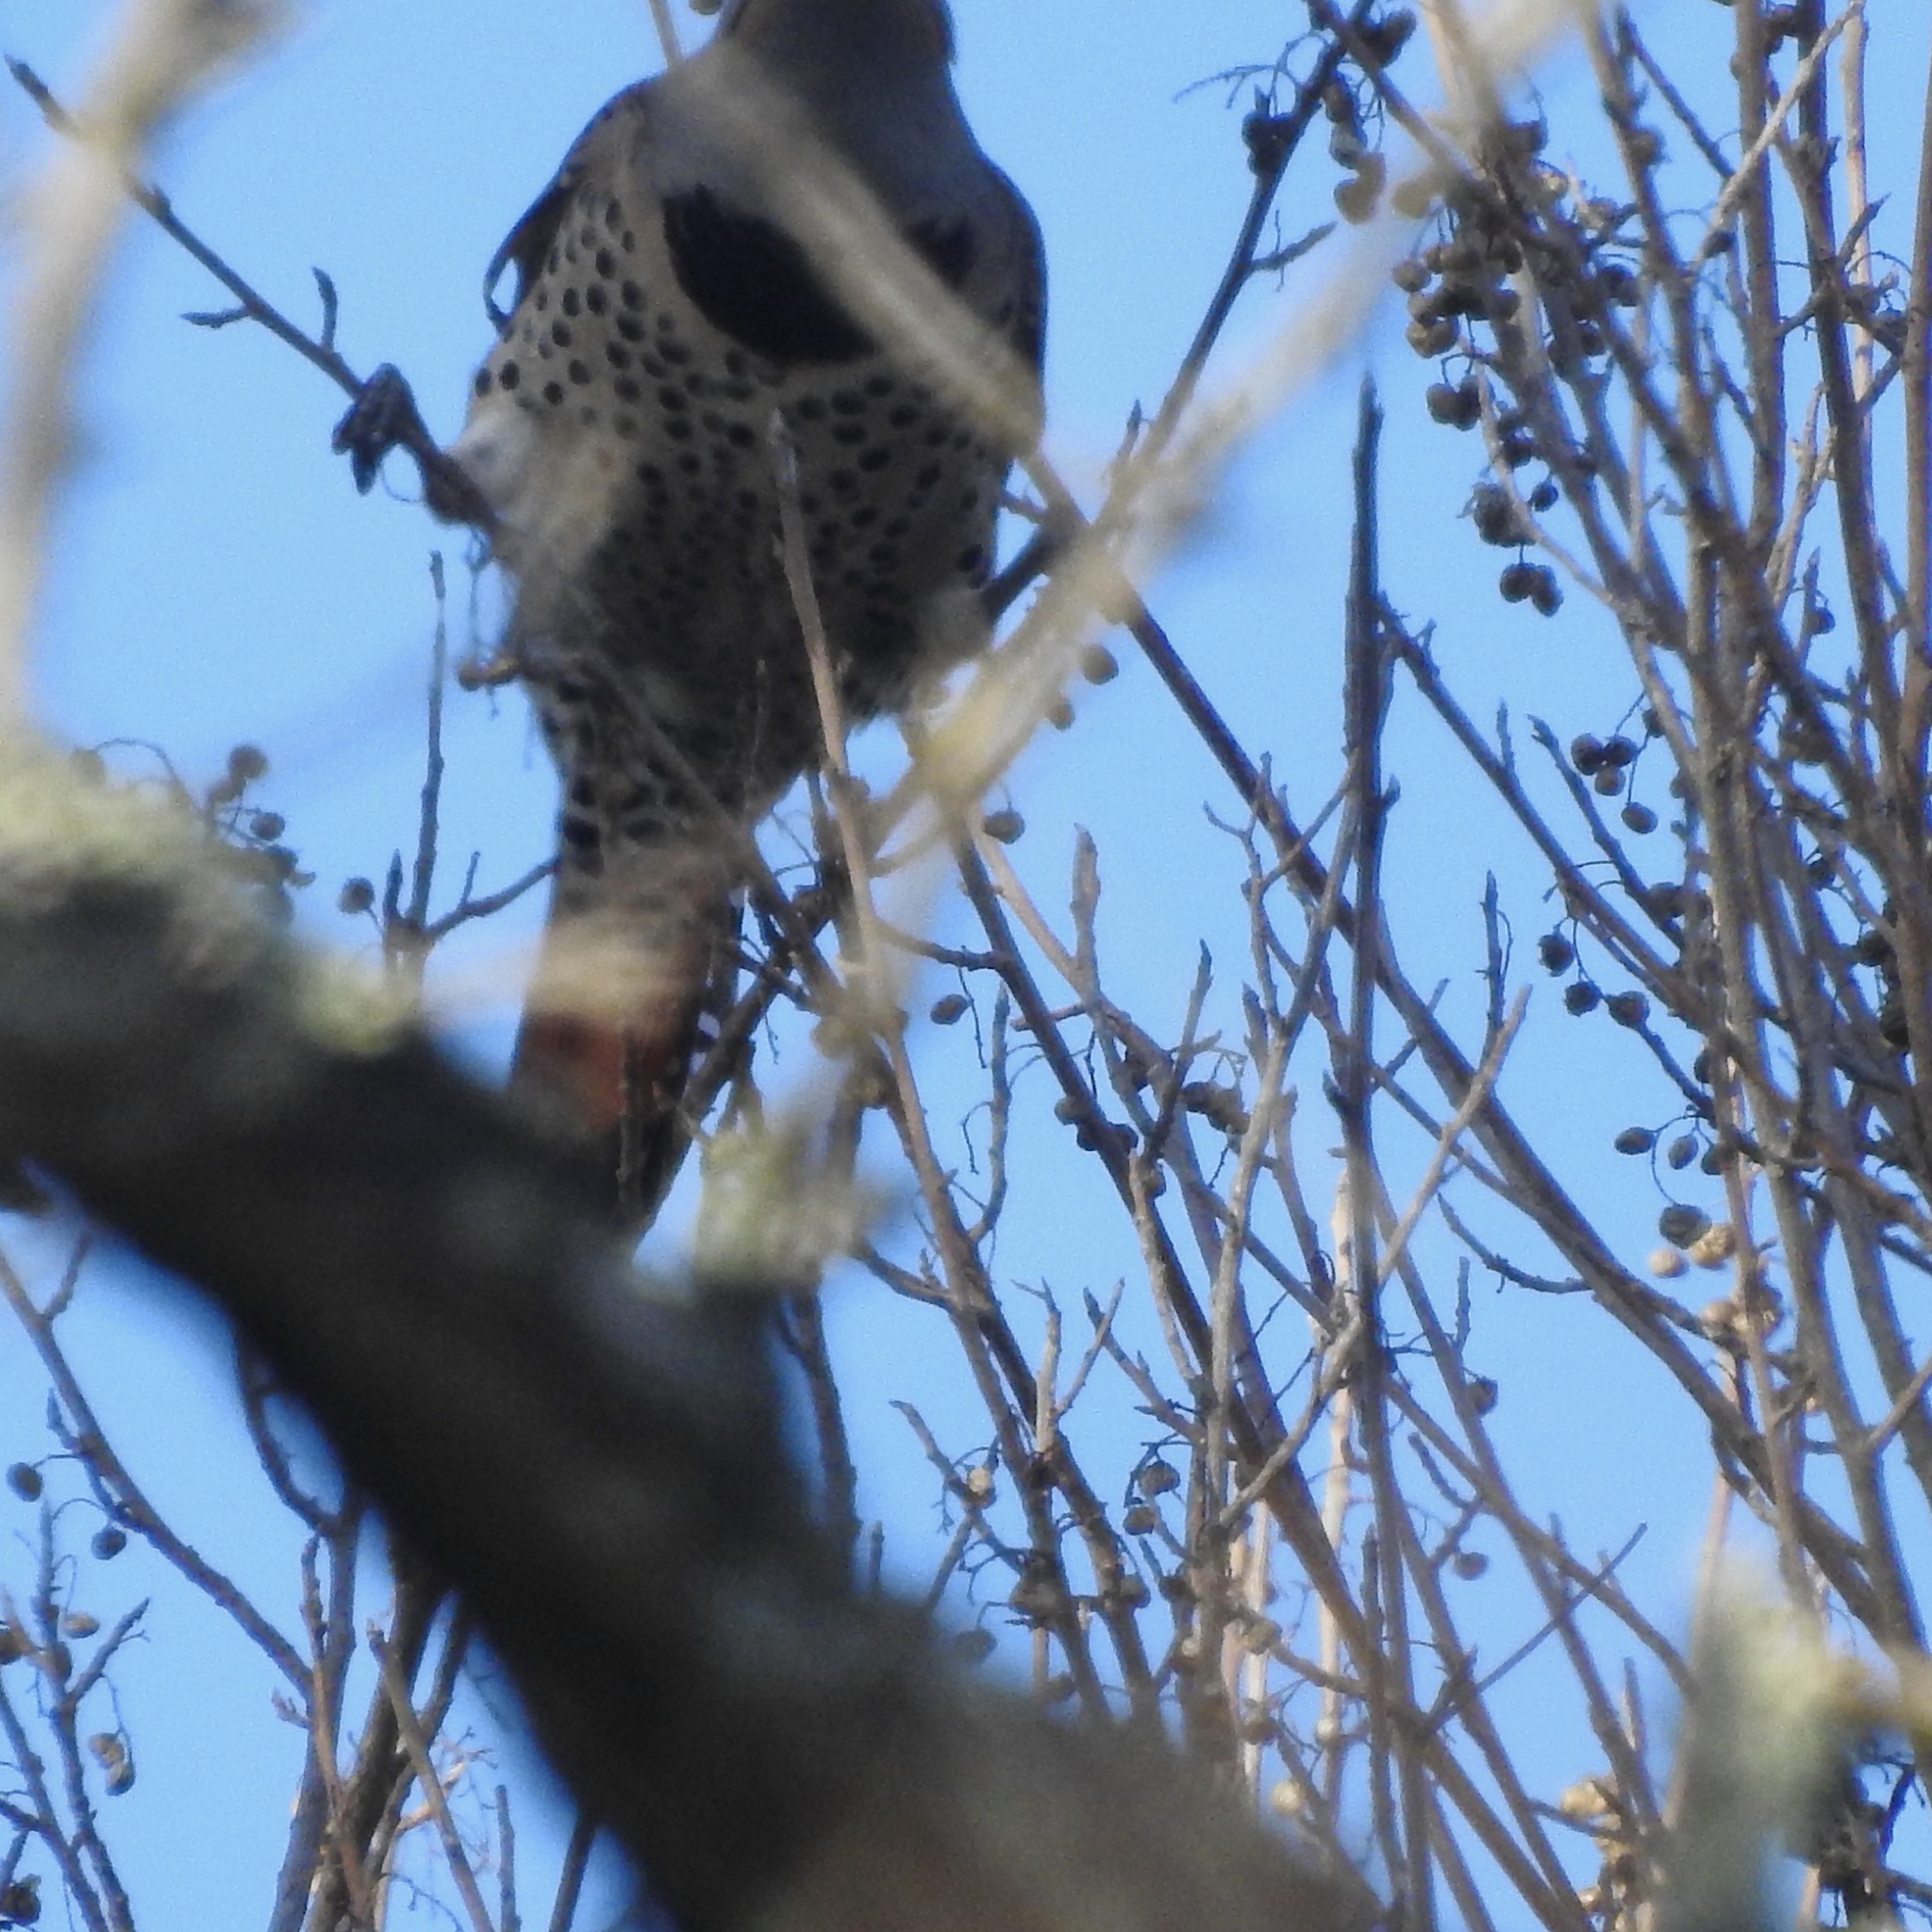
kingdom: Animalia
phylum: Chordata
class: Aves
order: Piciformes
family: Picidae
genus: Colaptes
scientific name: Colaptes auratus
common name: Northern flicker
